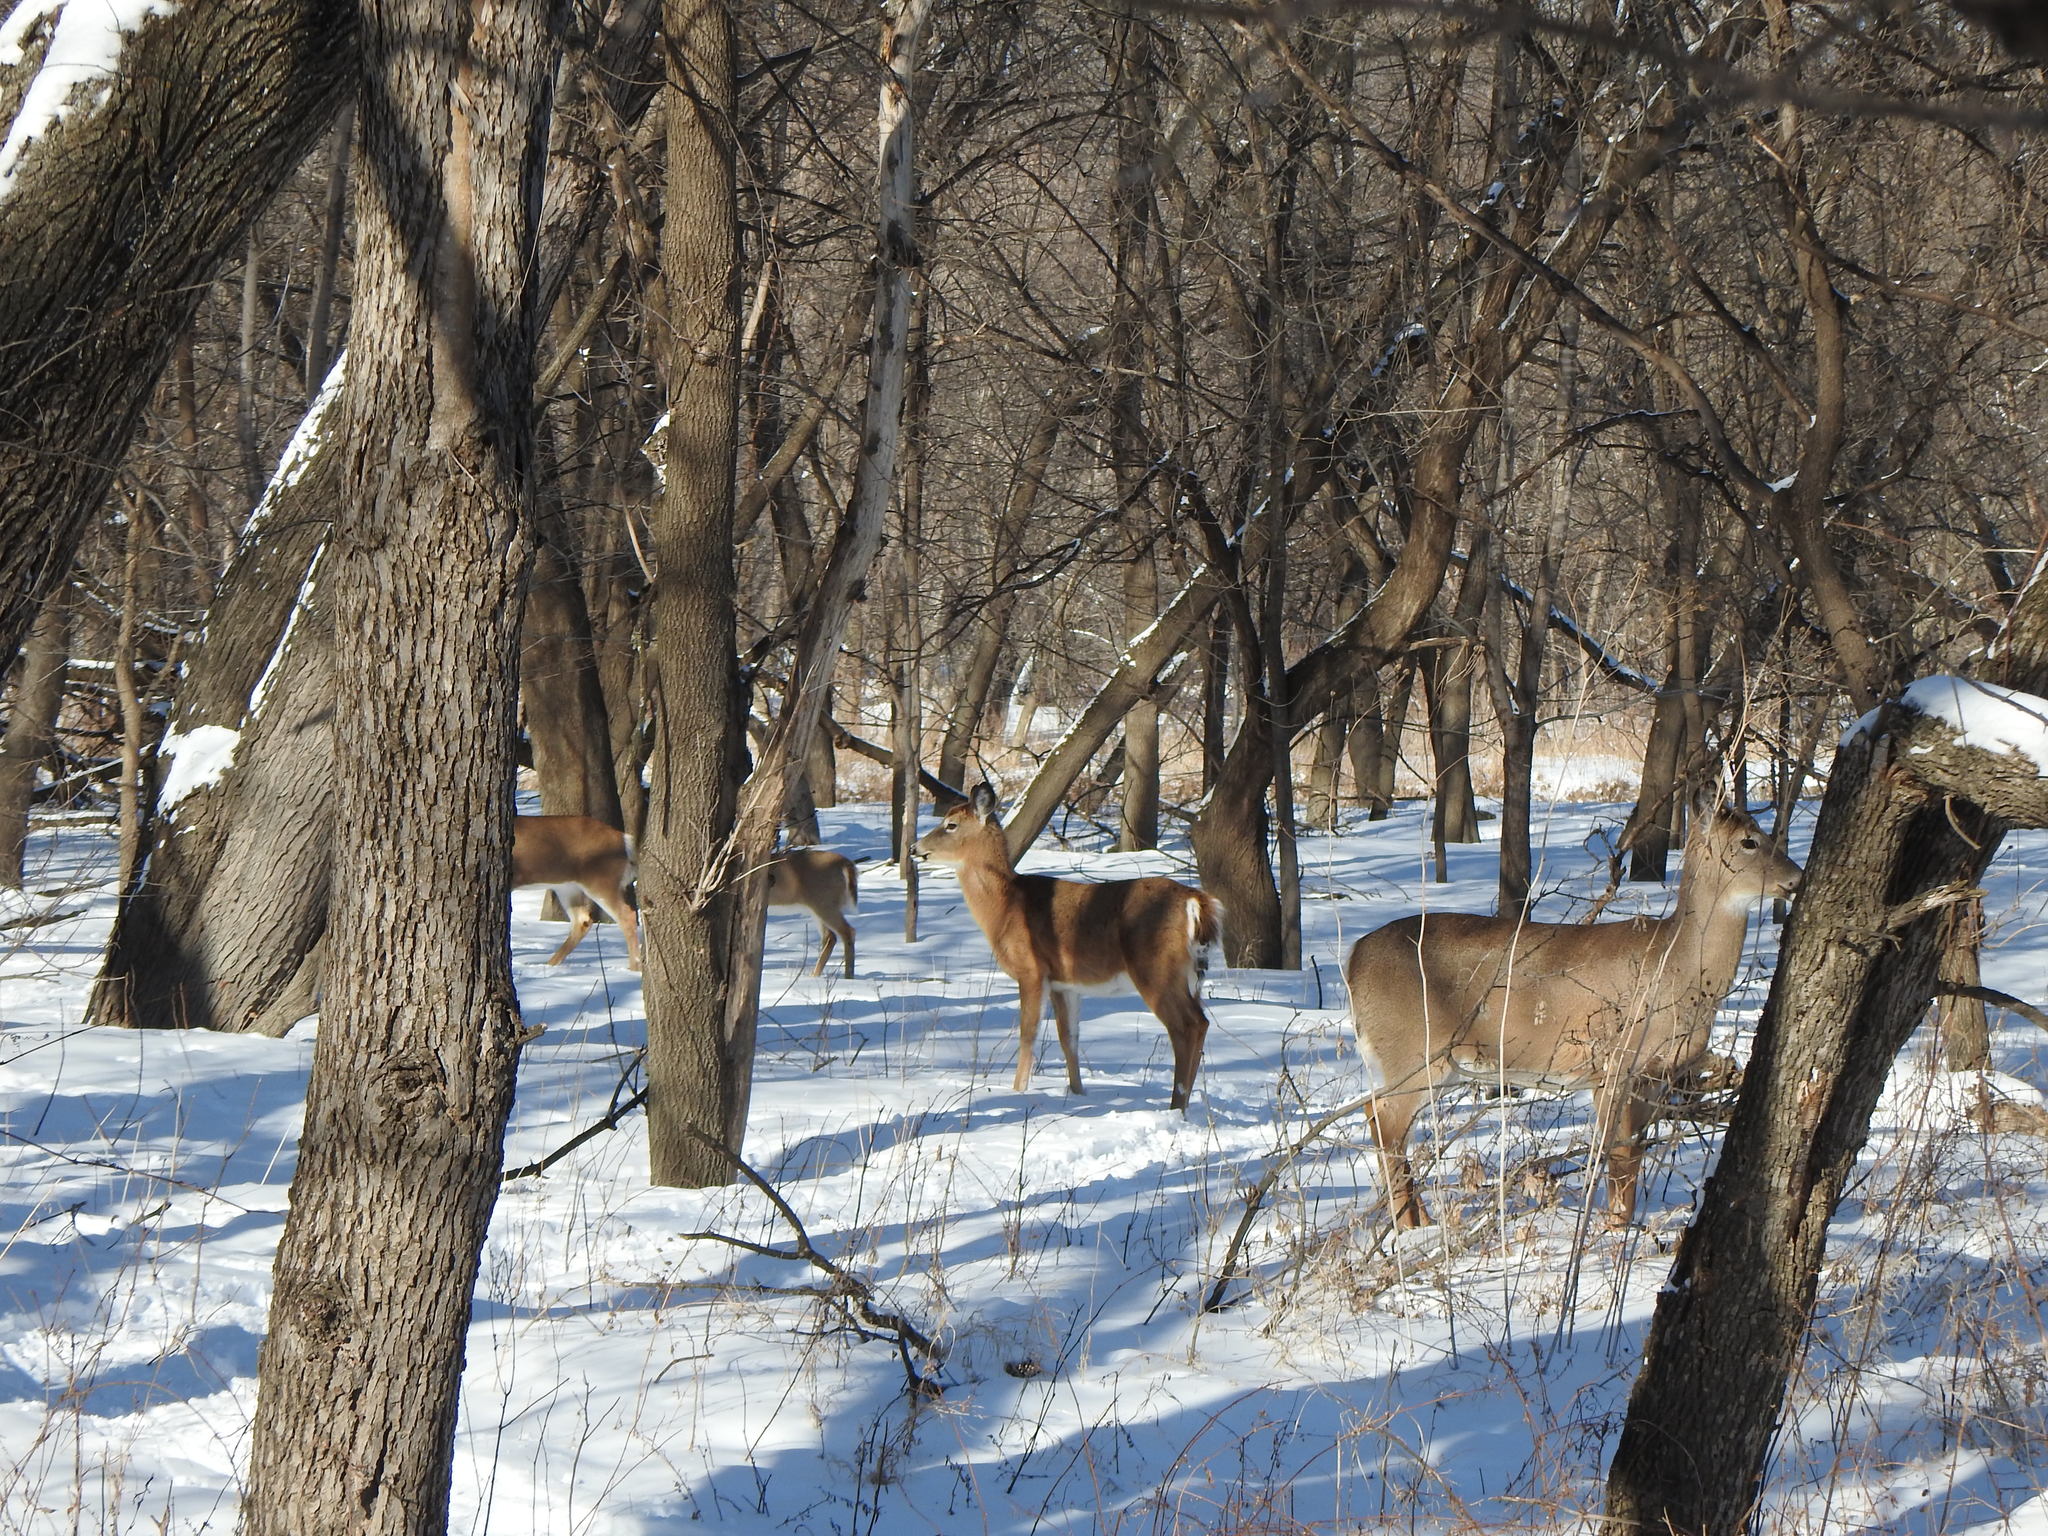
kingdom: Animalia
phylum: Chordata
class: Mammalia
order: Artiodactyla
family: Cervidae
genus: Odocoileus
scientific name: Odocoileus virginianus
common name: White-tailed deer
